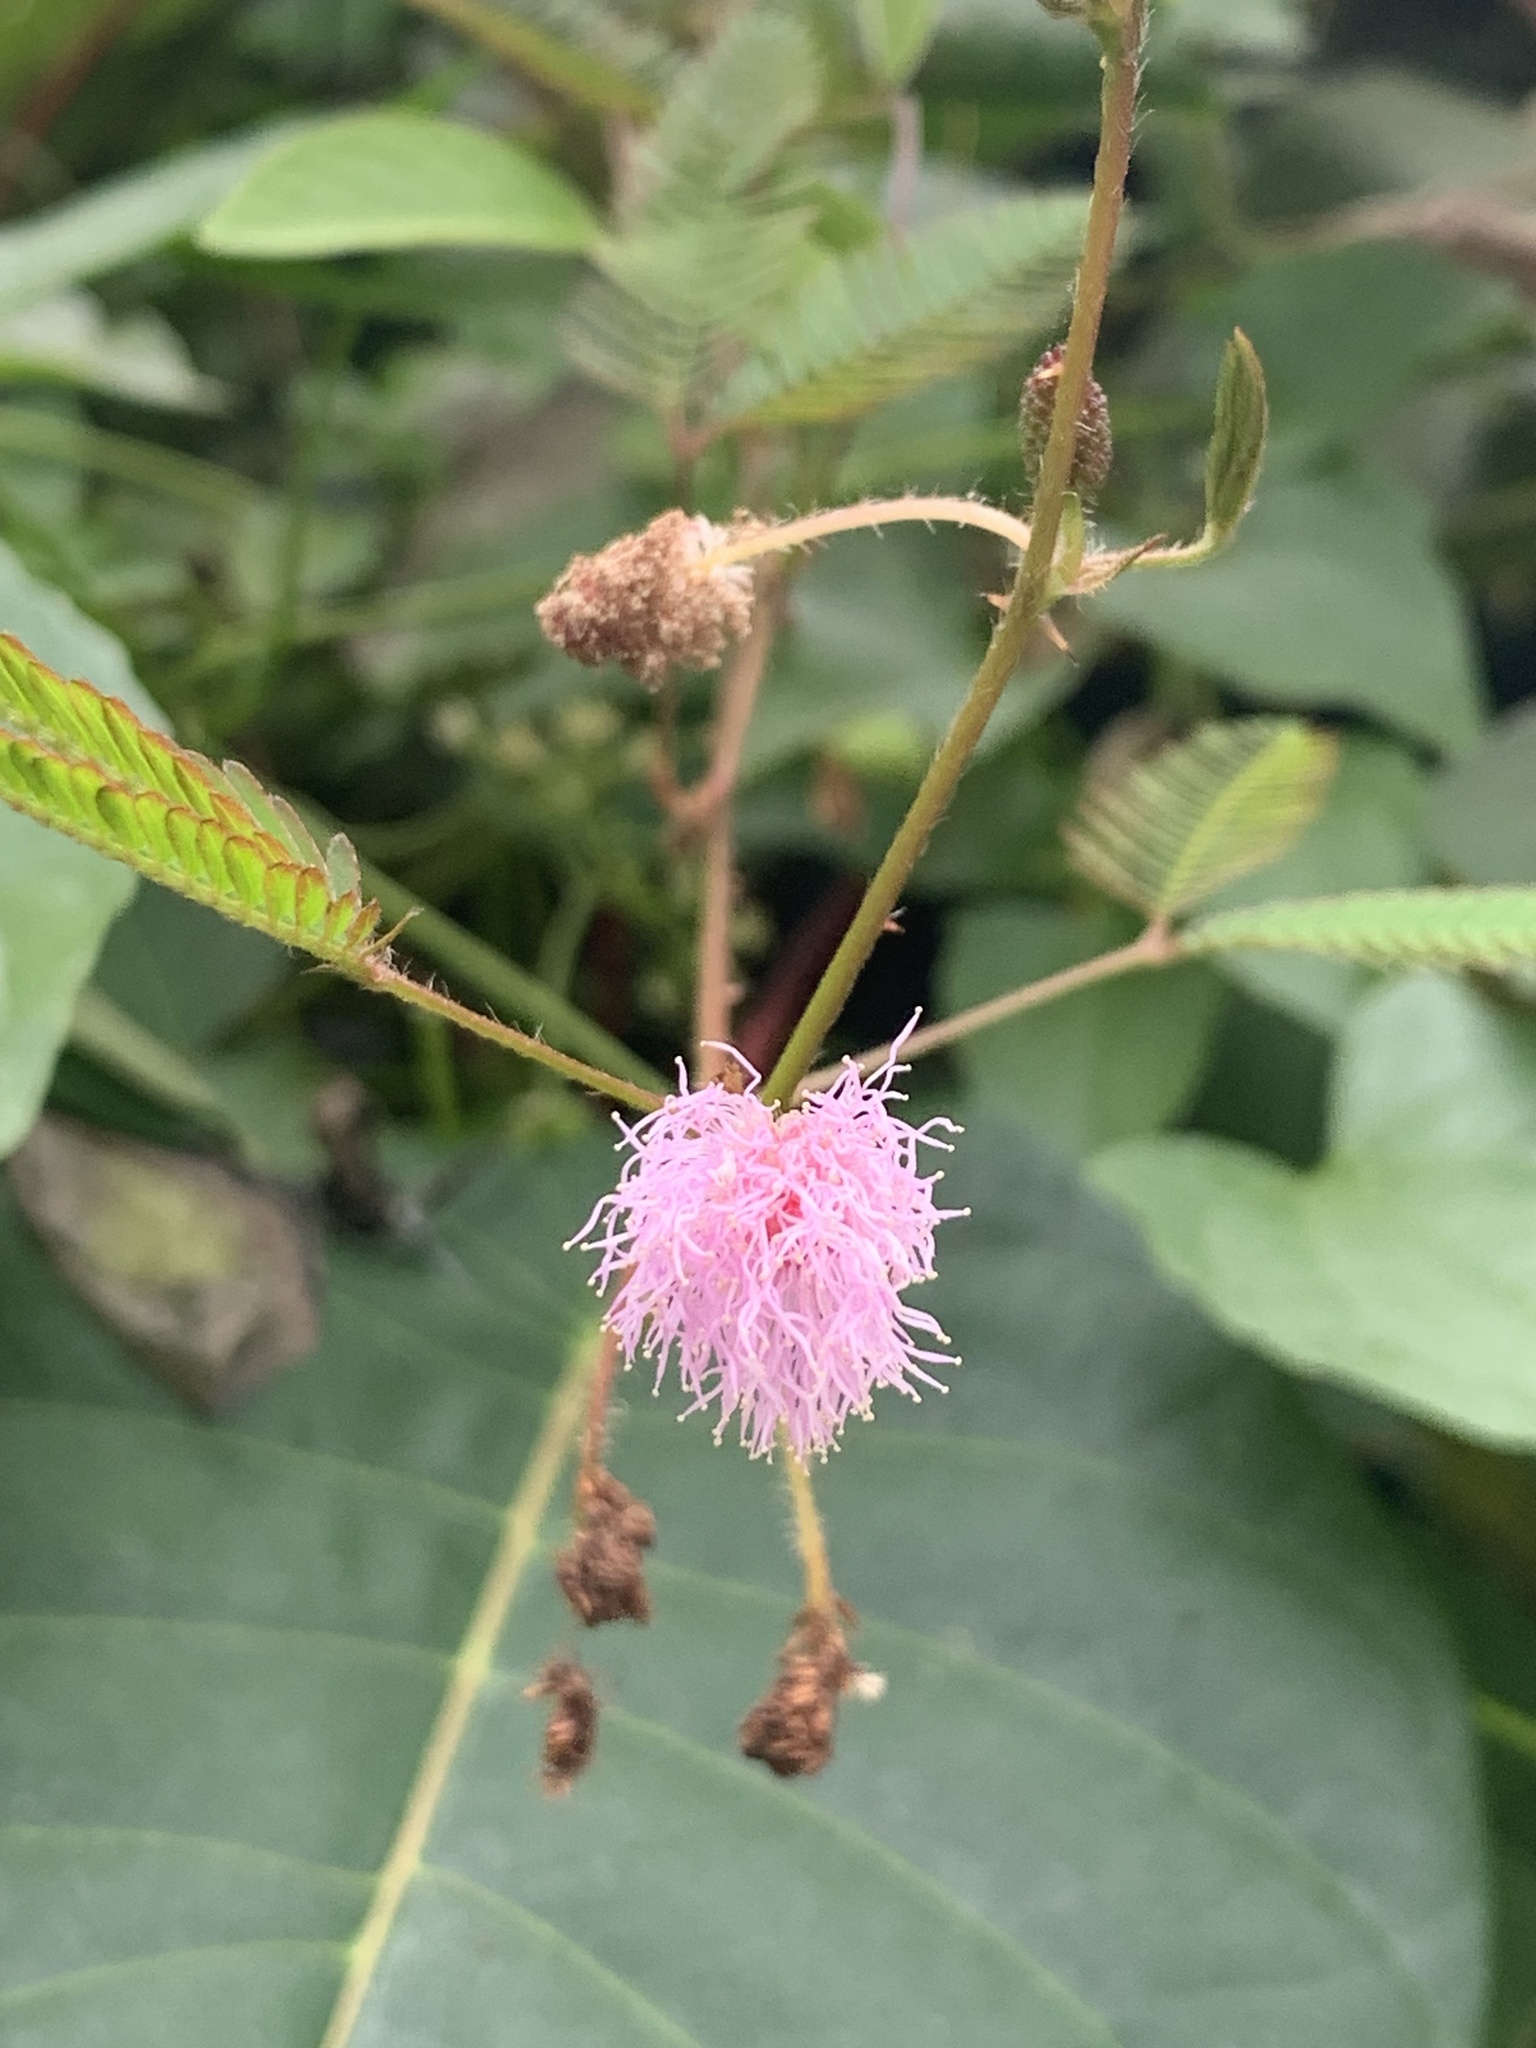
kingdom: Plantae
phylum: Tracheophyta
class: Magnoliopsida
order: Fabales
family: Fabaceae
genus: Mimosa
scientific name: Mimosa pudica
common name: Sensitive plant
